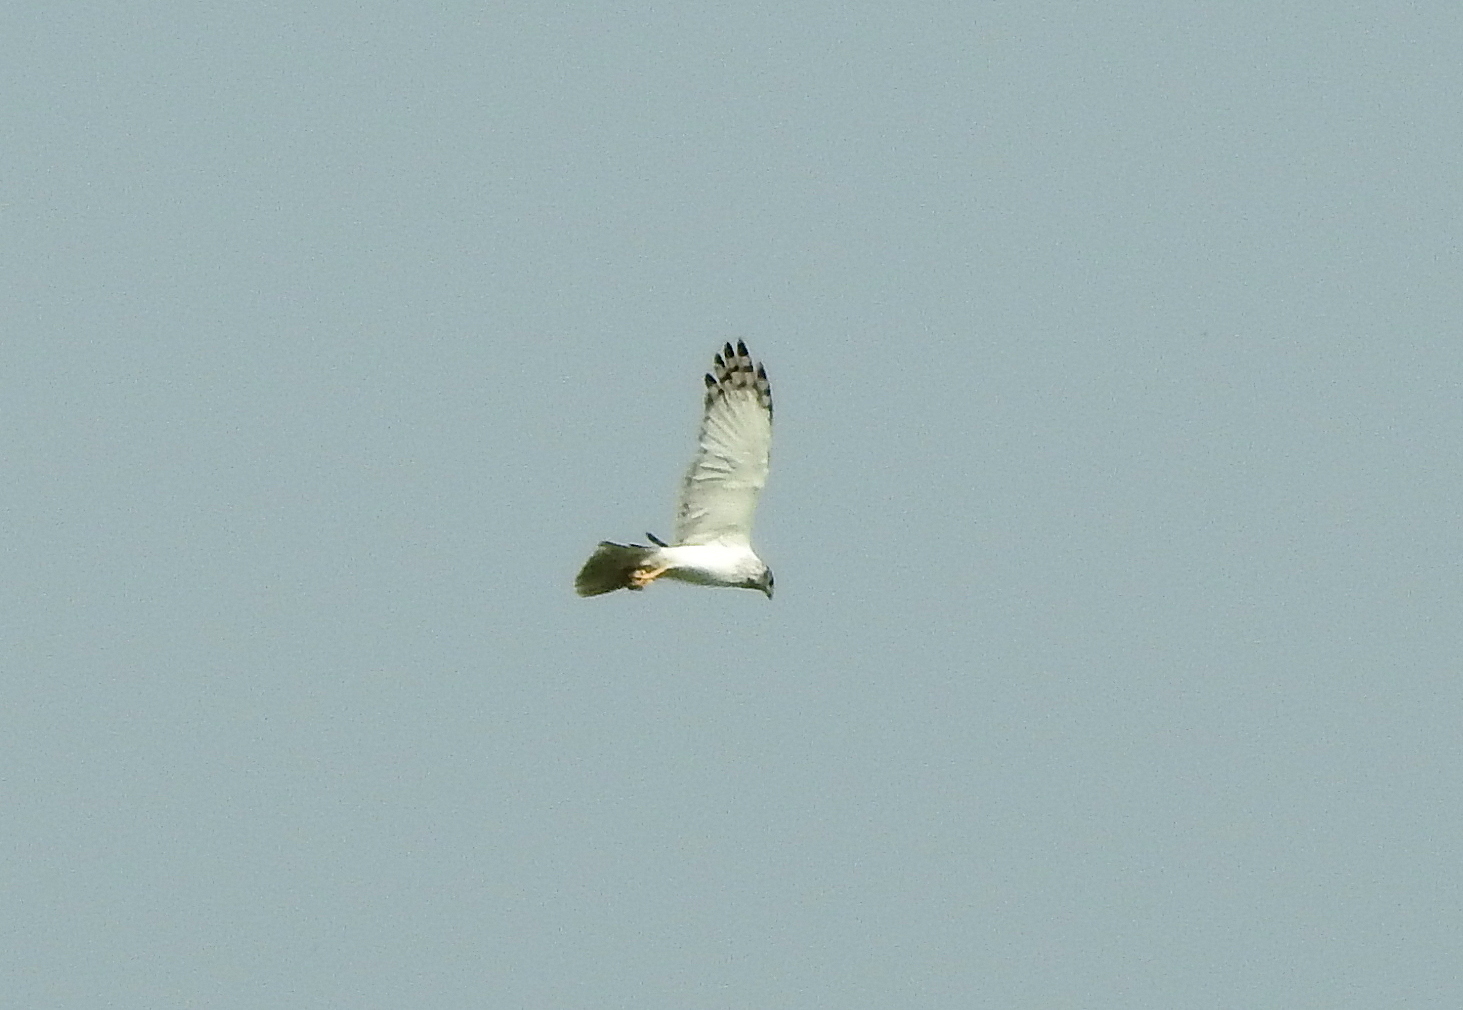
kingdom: Animalia
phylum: Chordata
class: Aves
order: Accipitriformes
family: Accipitridae
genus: Circus
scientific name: Circus spilonotus
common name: Eastern marsh-harrier
